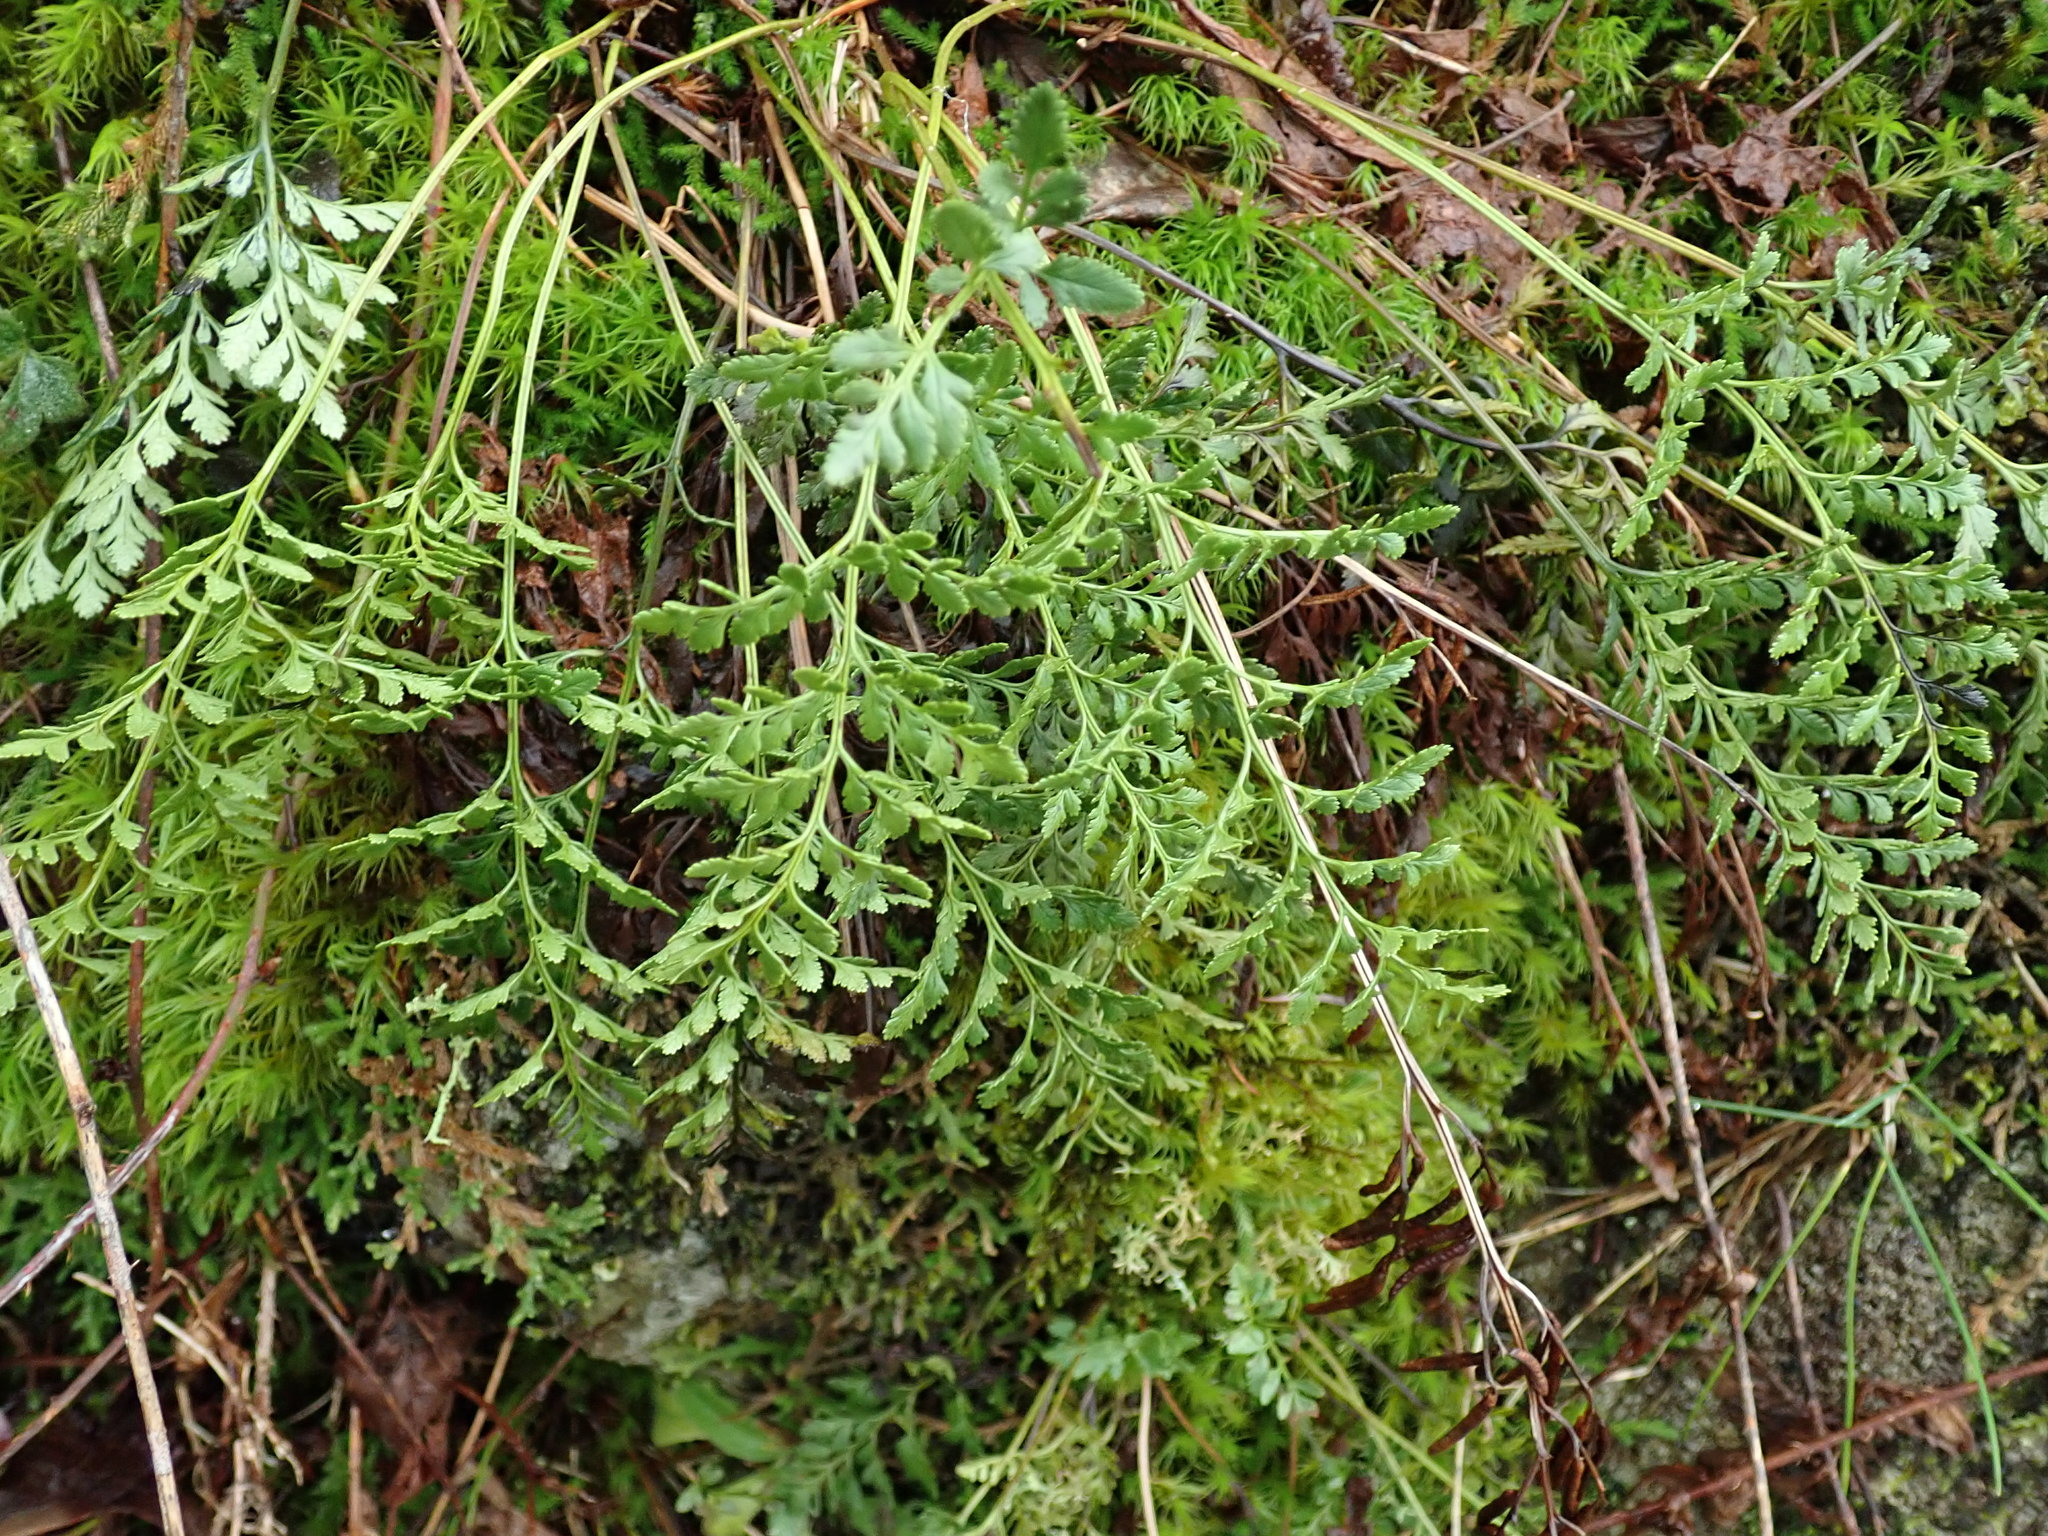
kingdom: Plantae
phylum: Tracheophyta
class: Polypodiopsida
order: Polypodiales
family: Pteridaceae
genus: Cryptogramma
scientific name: Cryptogramma acrostichoides
